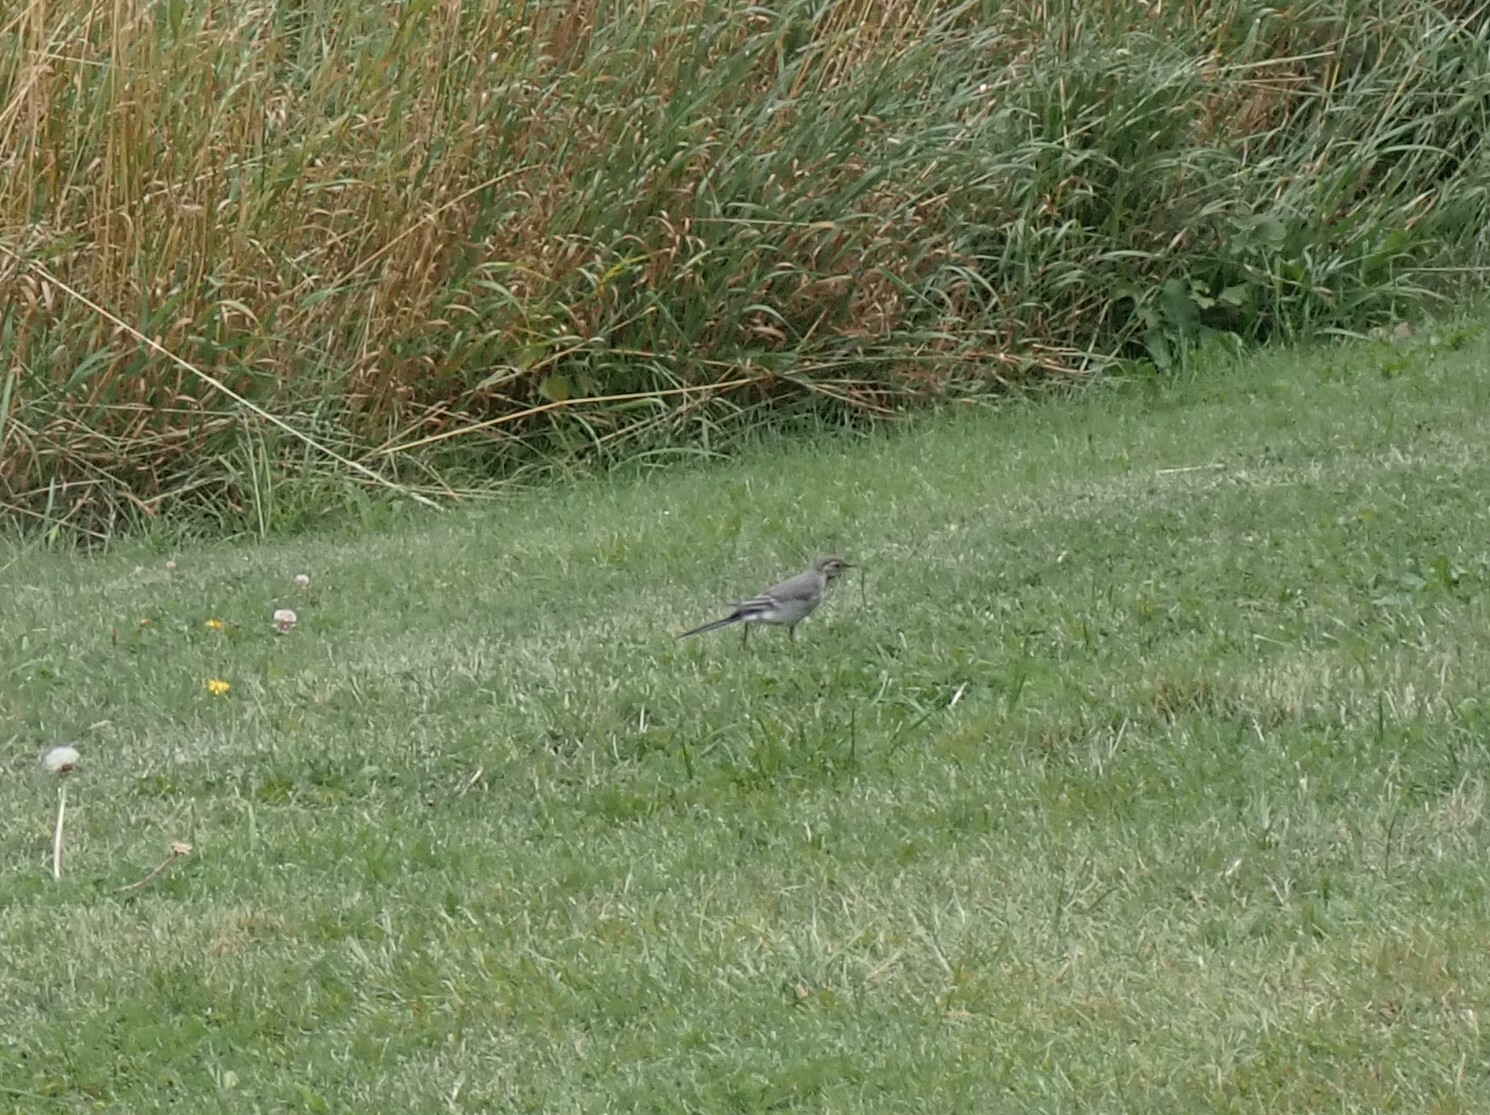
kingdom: Animalia
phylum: Chordata
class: Aves
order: Passeriformes
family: Motacillidae
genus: Motacilla
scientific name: Motacilla alba
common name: White wagtail
